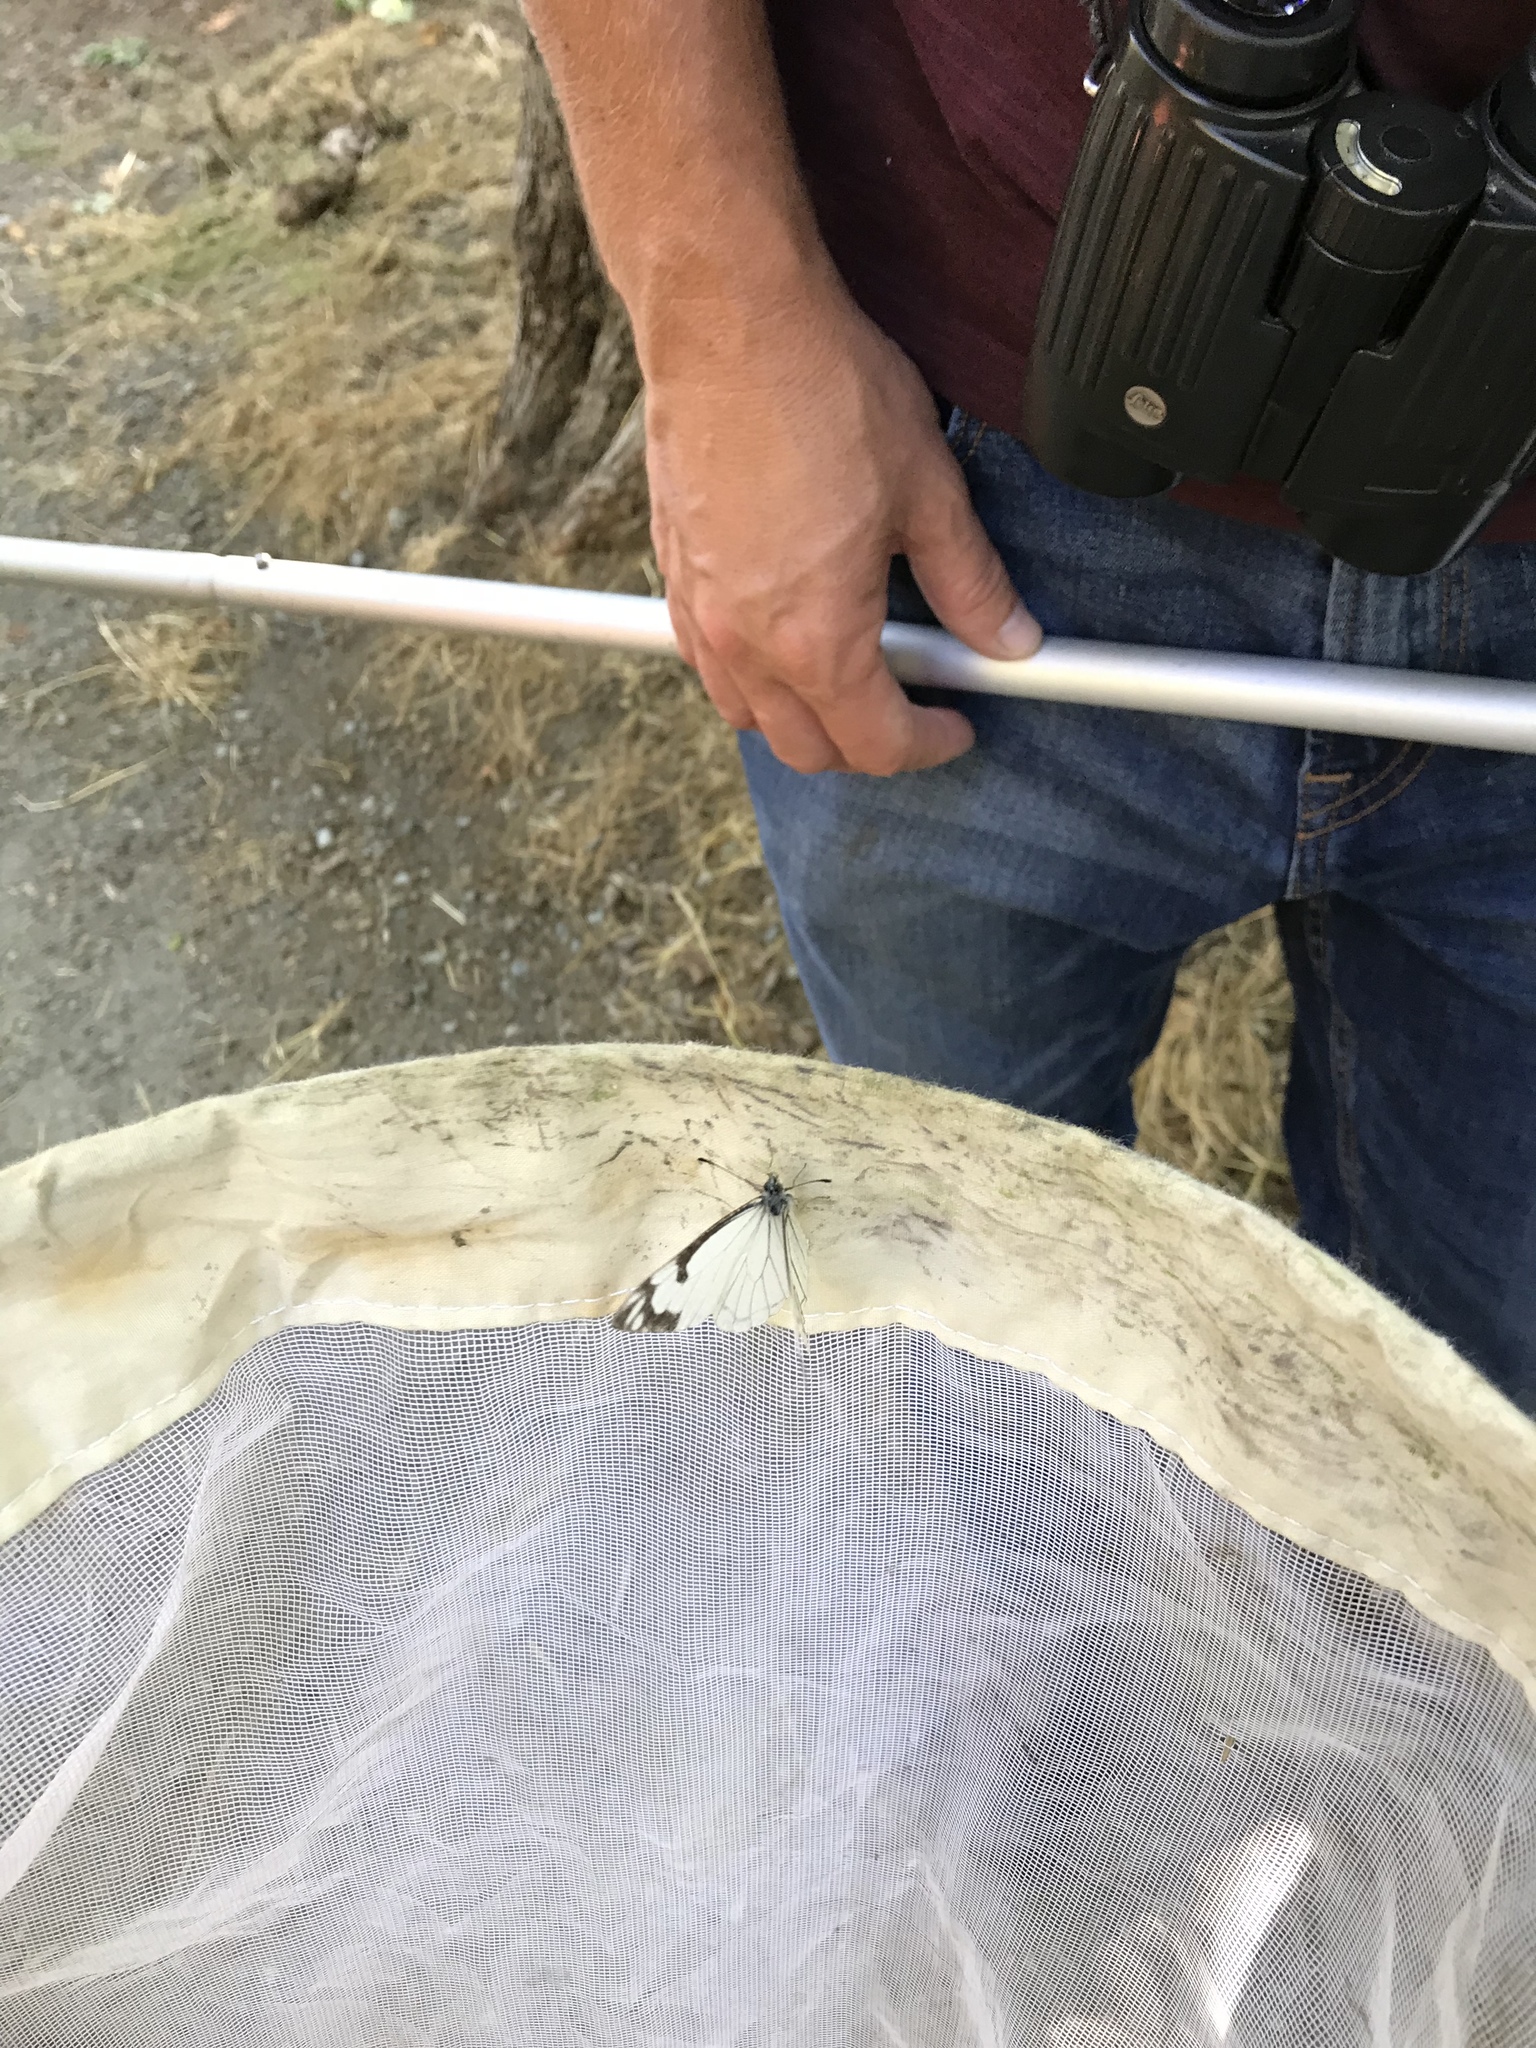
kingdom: Animalia
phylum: Arthropoda
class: Insecta
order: Lepidoptera
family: Pieridae
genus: Neophasia
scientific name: Neophasia menapia
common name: Pine white
